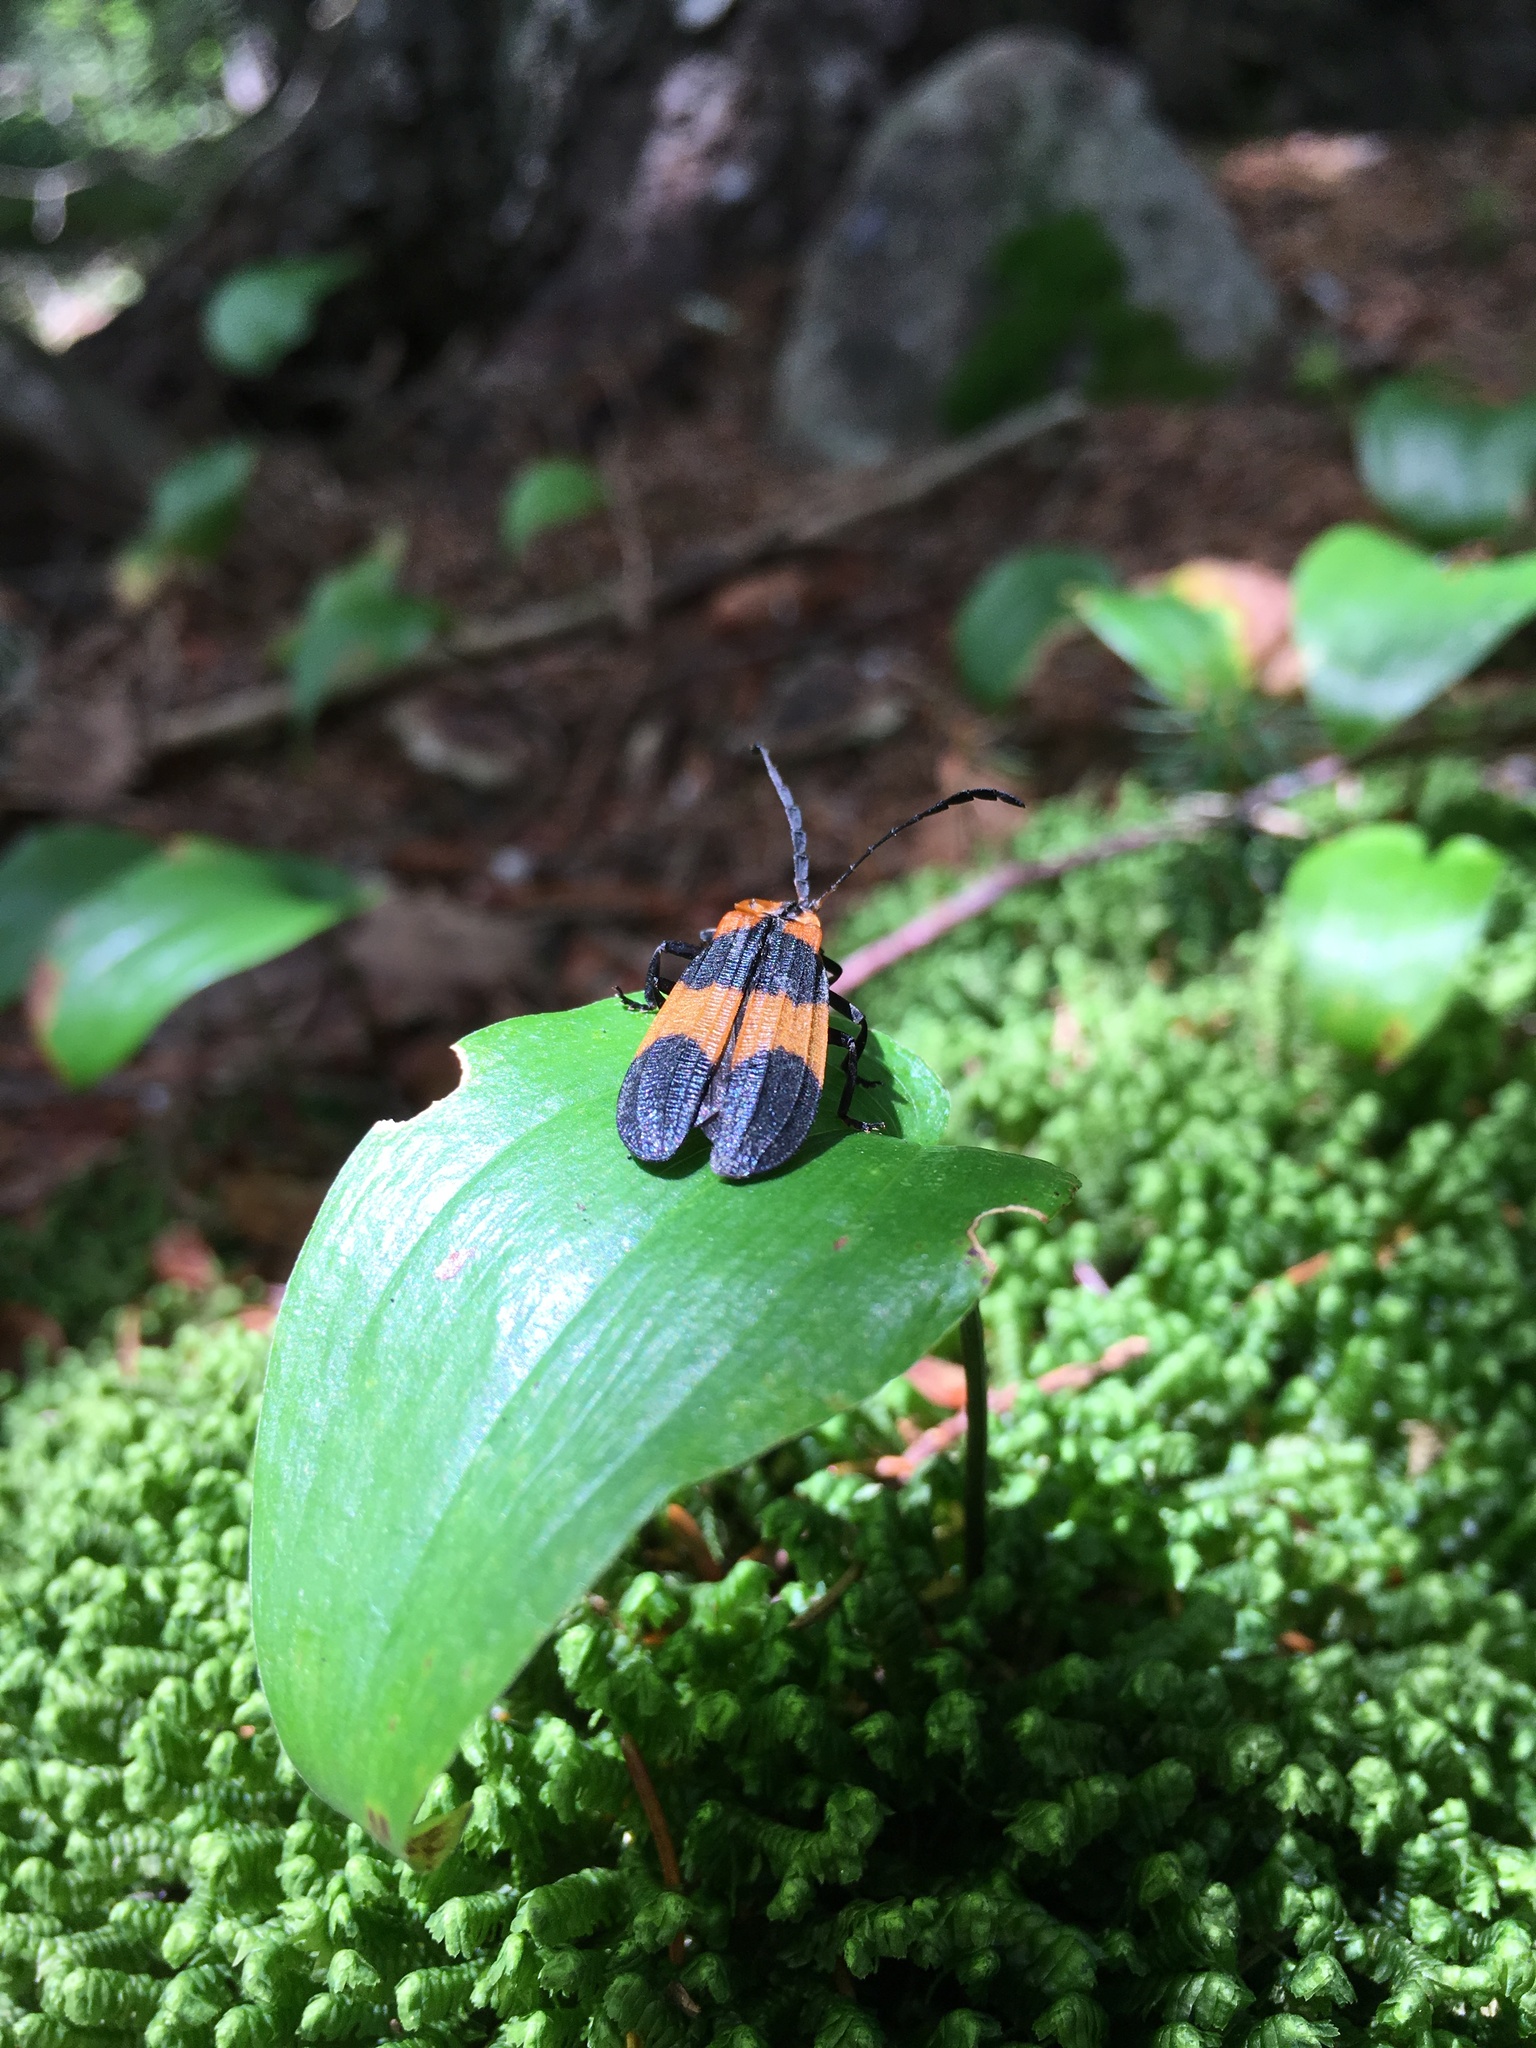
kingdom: Animalia
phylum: Arthropoda
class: Insecta
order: Coleoptera
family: Lycidae
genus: Calopteron
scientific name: Calopteron reticulatum
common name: Banded net-winged beetle
